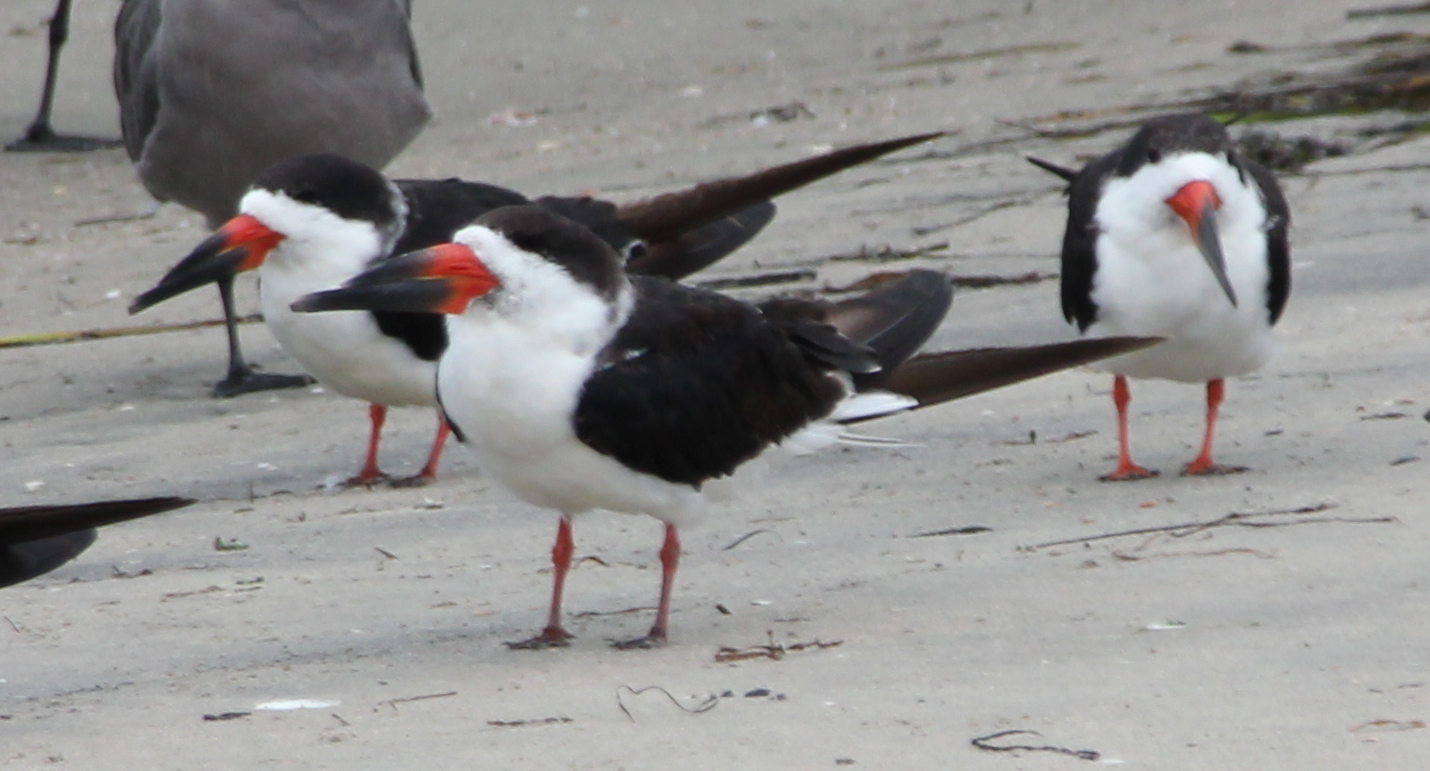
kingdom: Animalia
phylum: Chordata
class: Aves
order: Charadriiformes
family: Laridae
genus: Rynchops
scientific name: Rynchops niger
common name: Black skimmer
